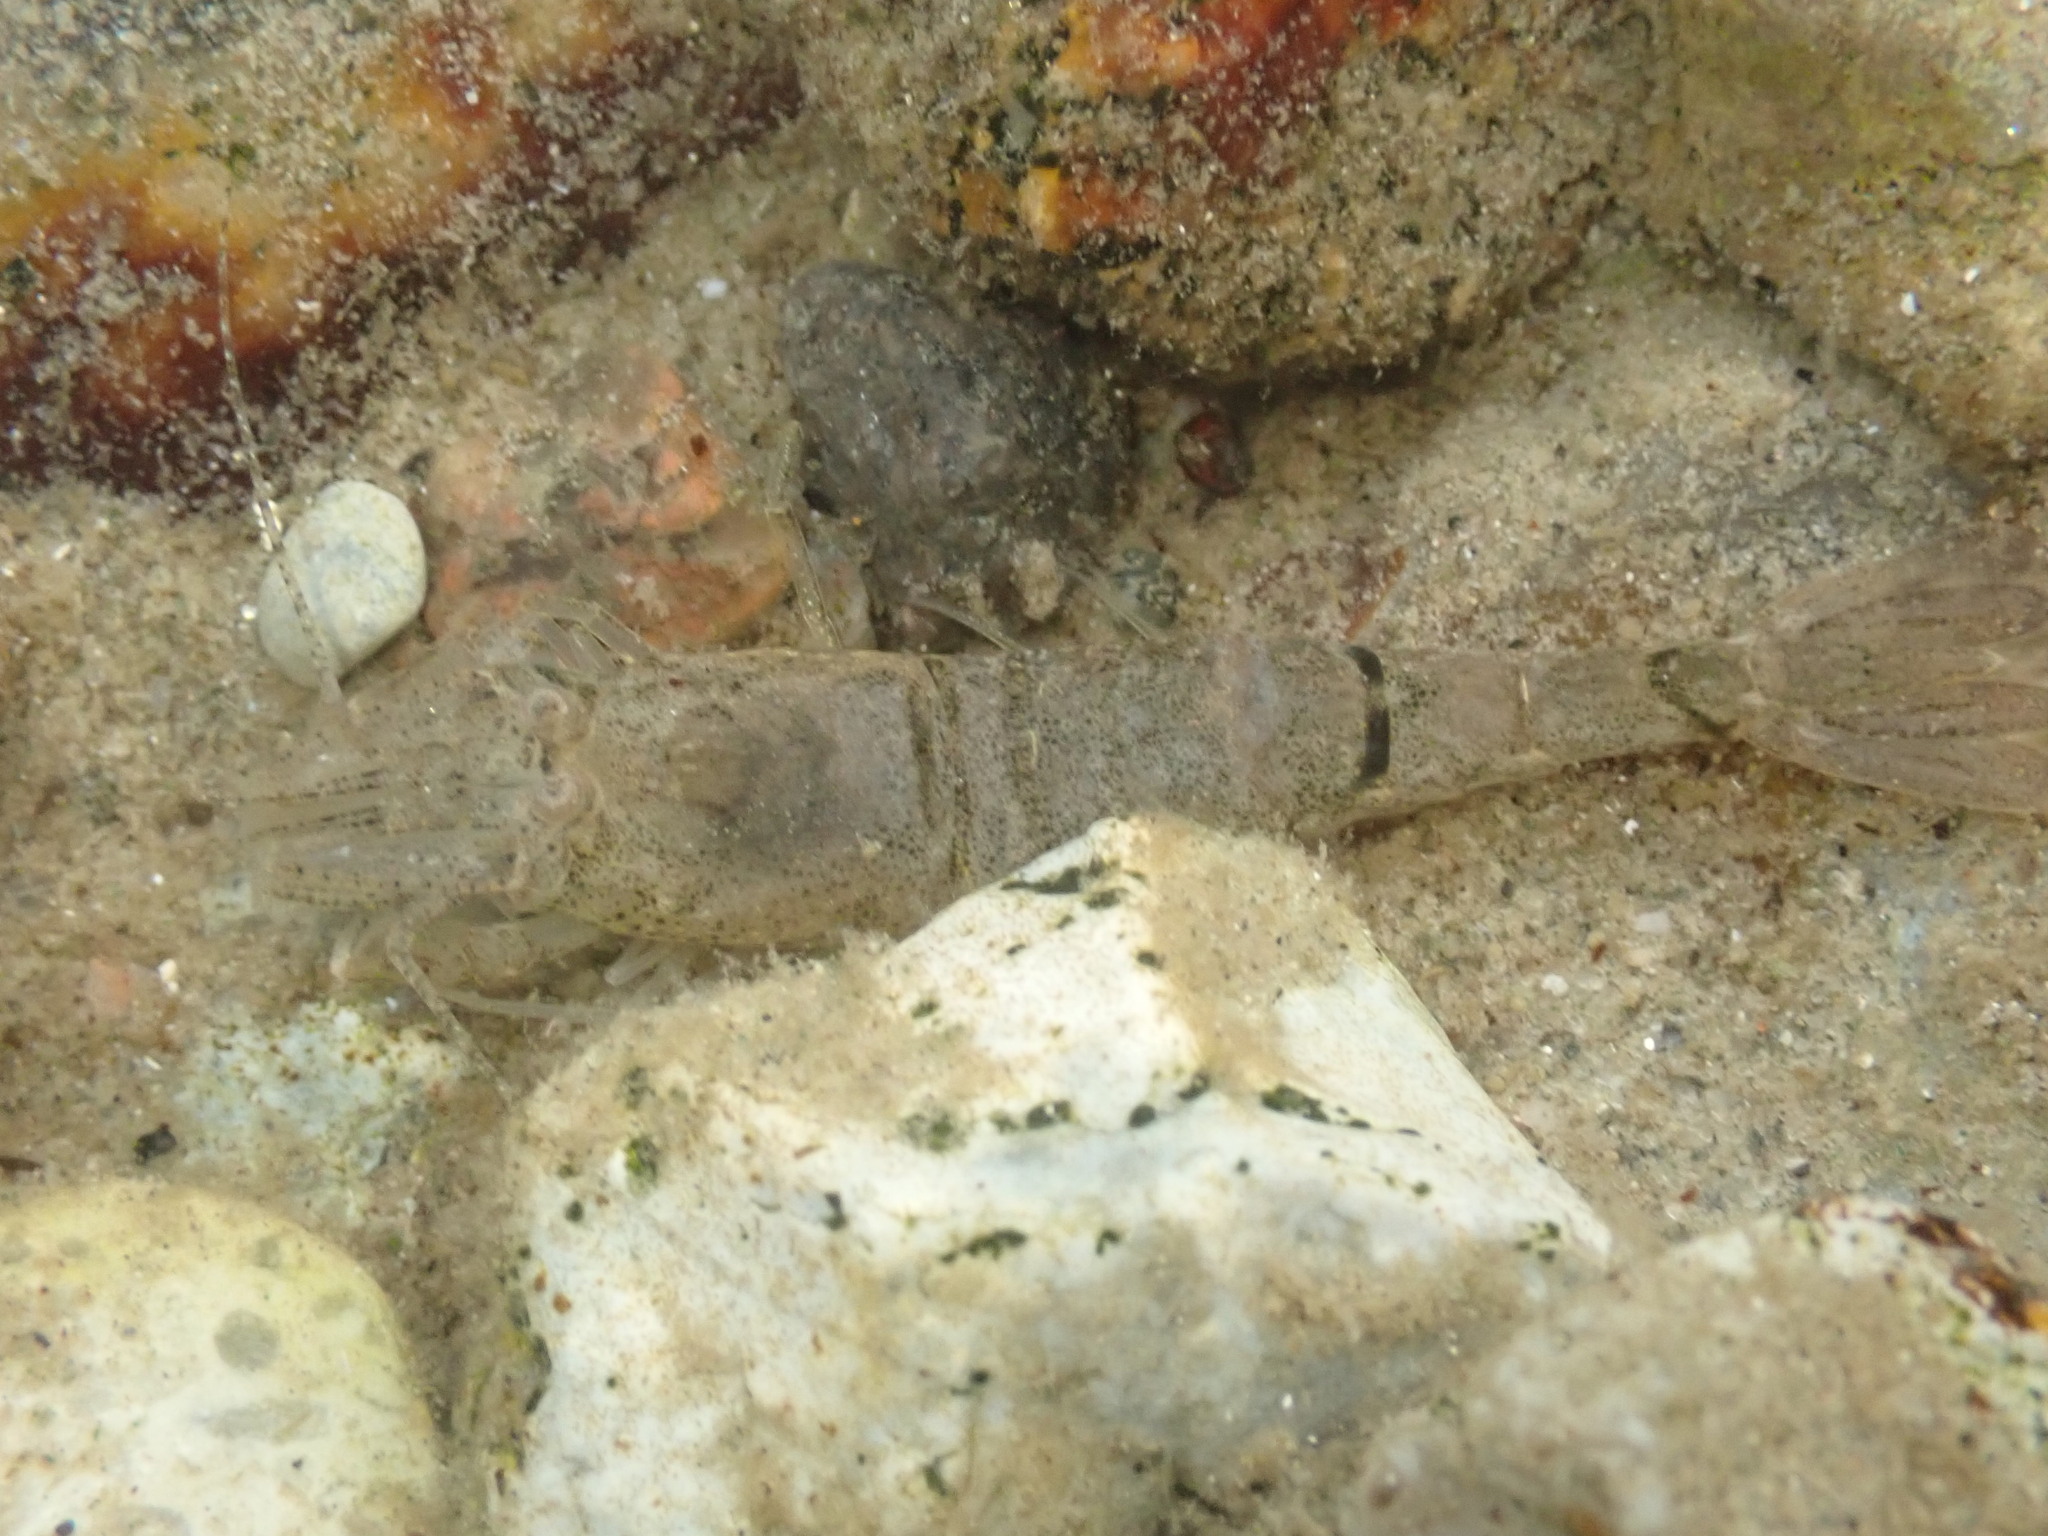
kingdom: Animalia
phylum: Arthropoda
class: Malacostraca
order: Decapoda
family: Crangonidae
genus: Crangon
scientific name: Crangon crangon
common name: Brown shrimp
